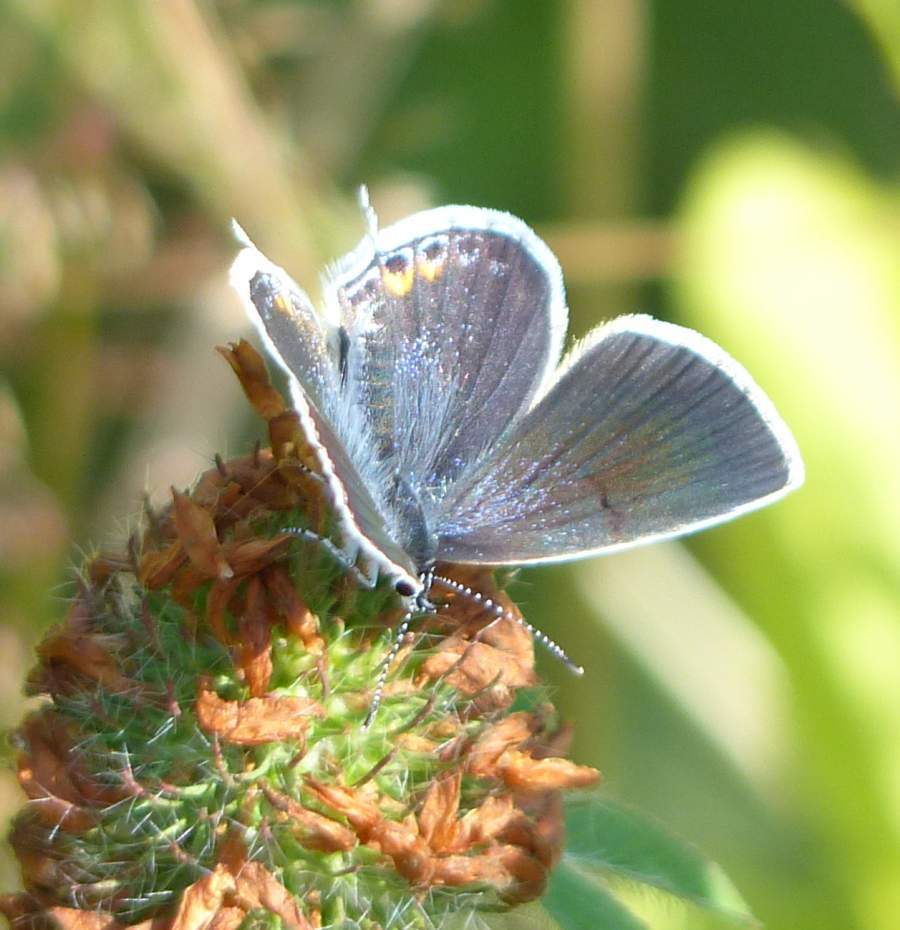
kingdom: Animalia
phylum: Arthropoda
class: Insecta
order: Lepidoptera
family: Lycaenidae
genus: Elkalyce
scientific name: Elkalyce comyntas
